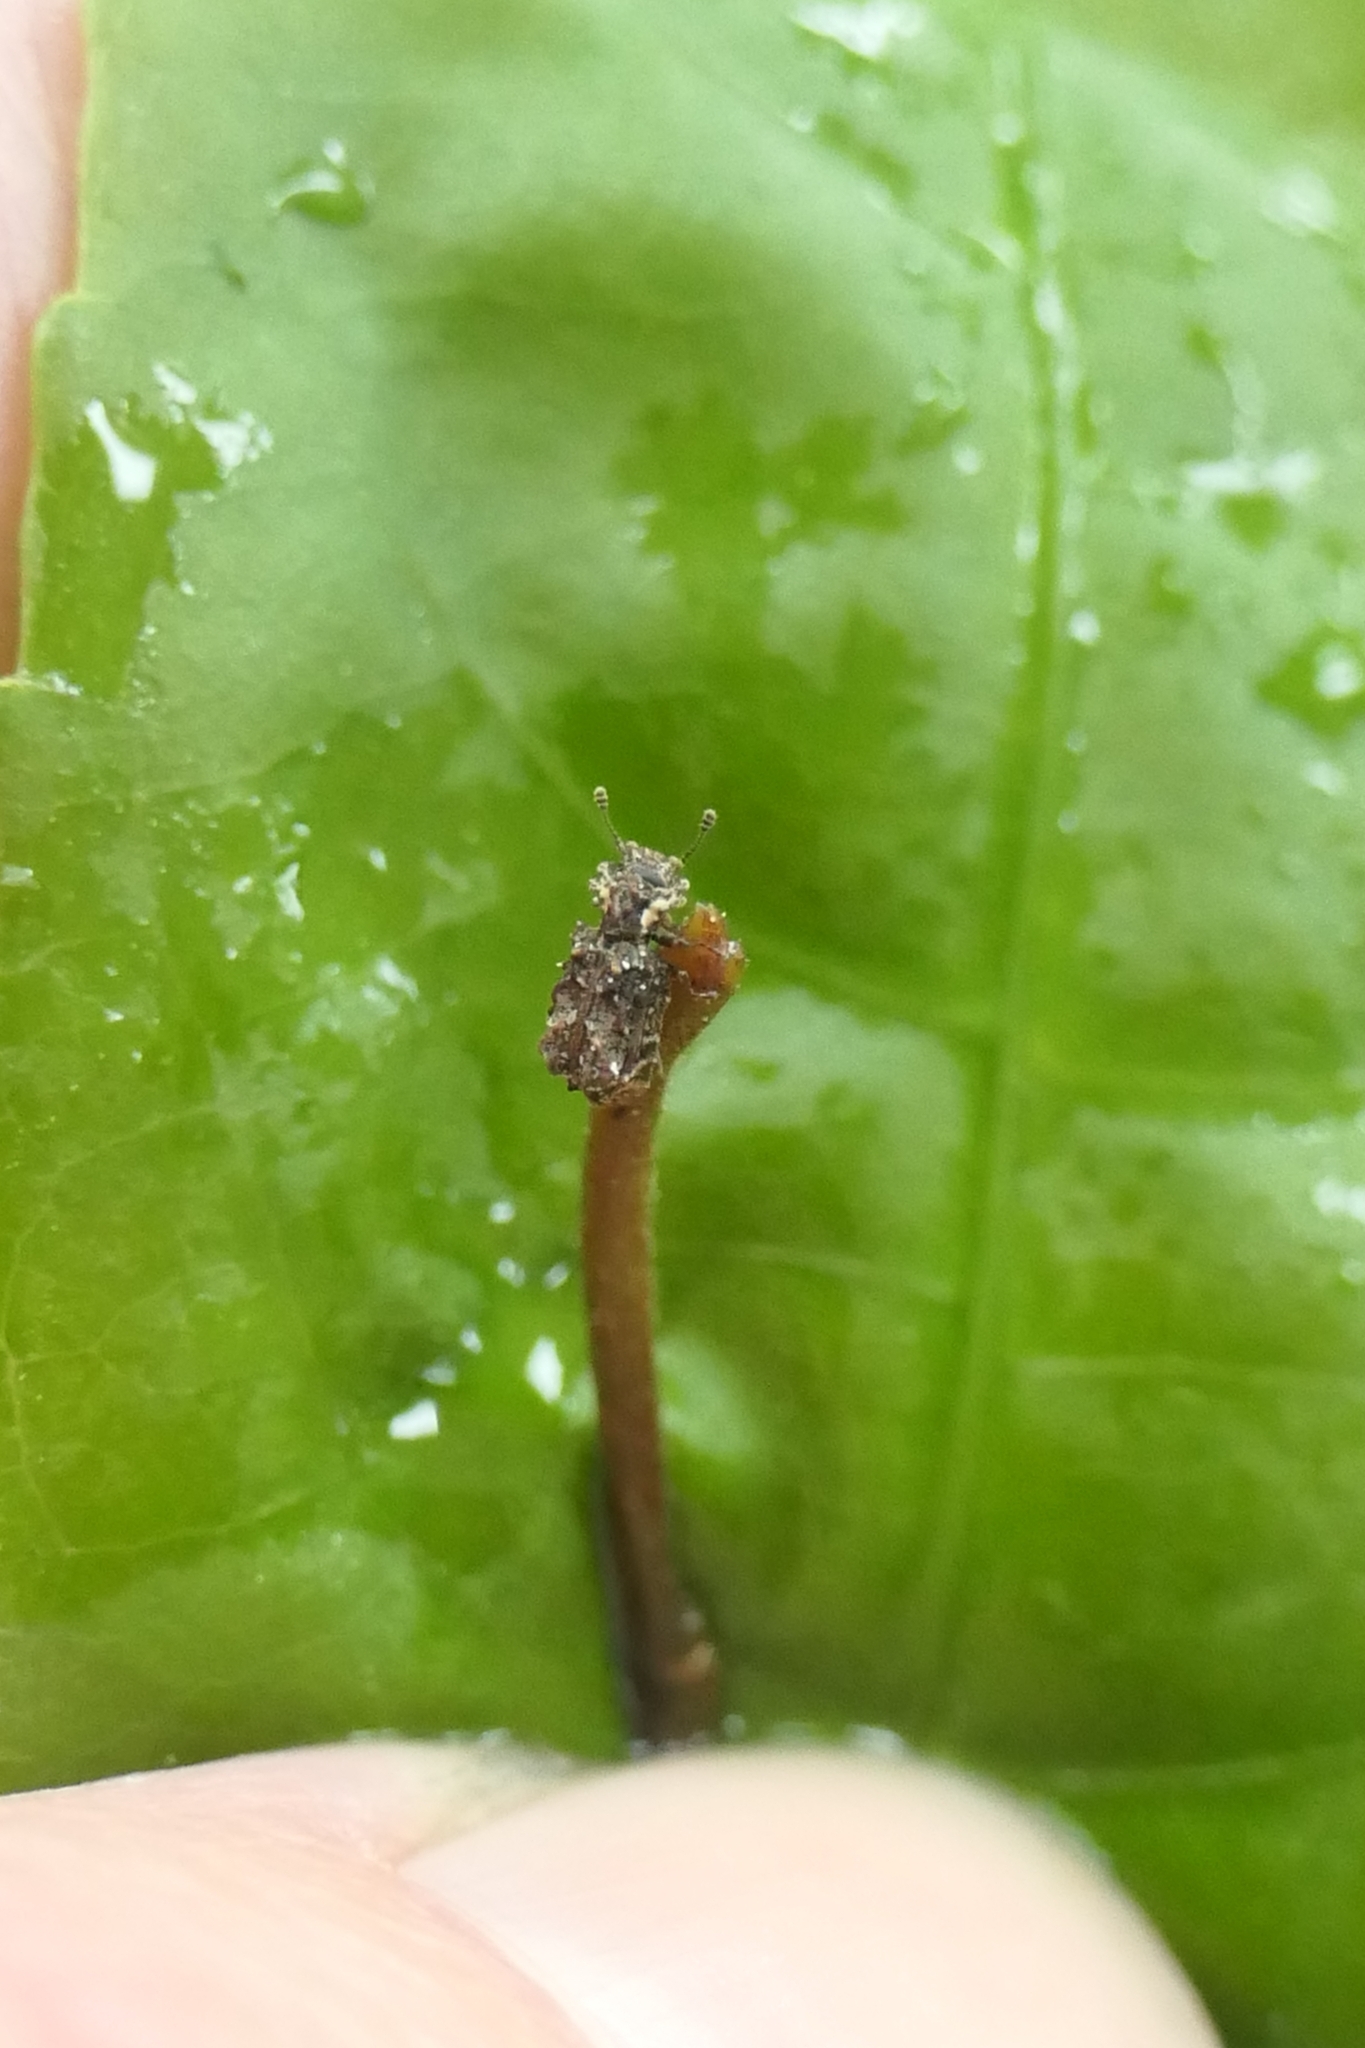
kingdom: Animalia
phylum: Arthropoda
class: Insecta
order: Coleoptera
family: Zopheridae
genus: Tarphiomimus
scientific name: Tarphiomimus indentatus
